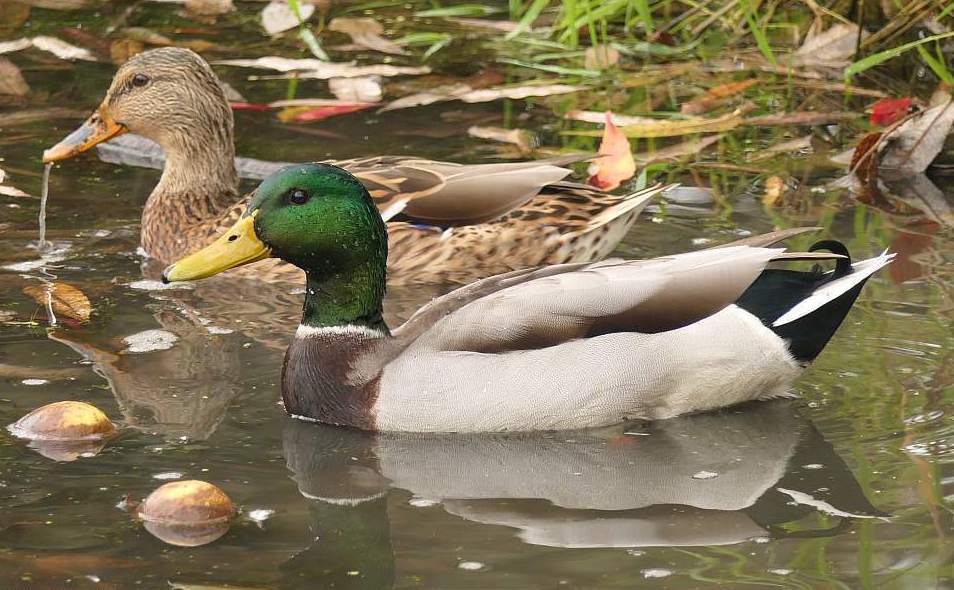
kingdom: Animalia
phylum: Chordata
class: Aves
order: Anseriformes
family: Anatidae
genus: Anas
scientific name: Anas platyrhynchos
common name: Mallard
